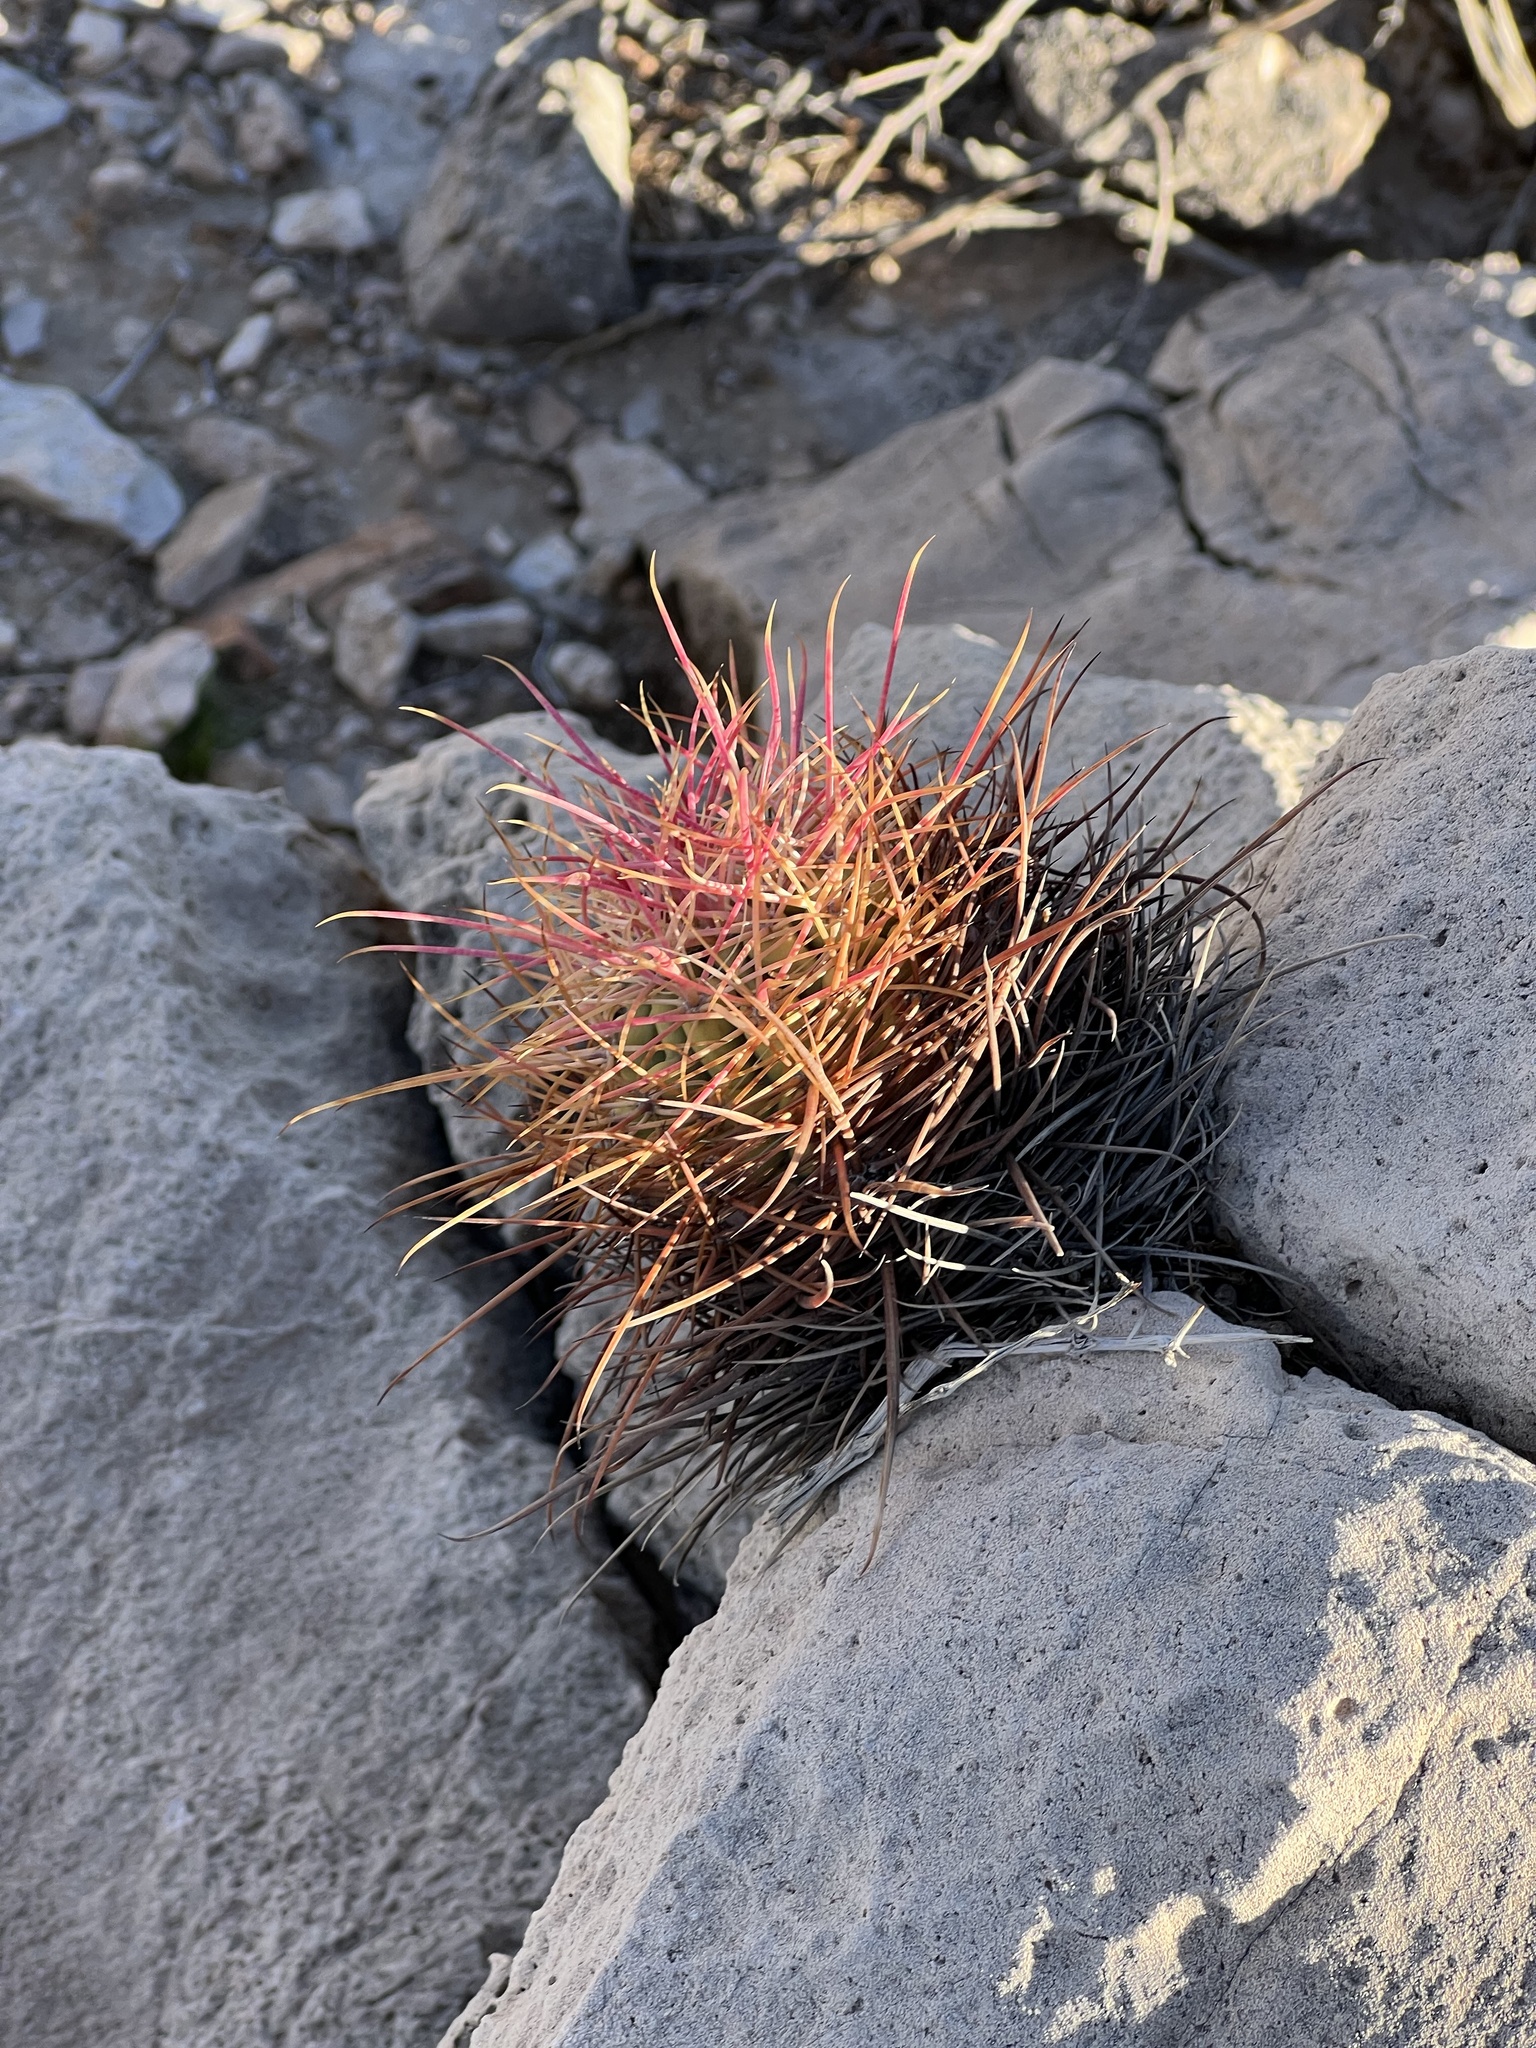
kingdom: Plantae
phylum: Tracheophyta
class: Magnoliopsida
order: Caryophyllales
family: Cactaceae
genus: Ferocactus
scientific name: Ferocactus cylindraceus
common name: California barrel cactus
